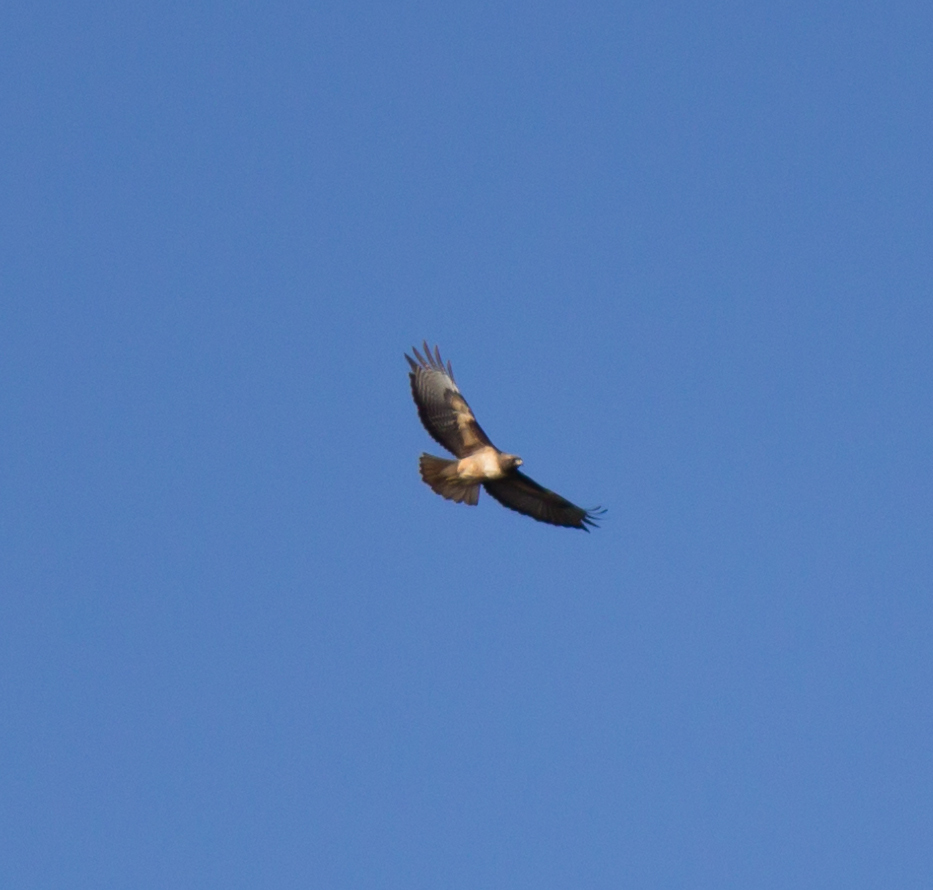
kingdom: Animalia
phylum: Chordata
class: Aves
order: Accipitriformes
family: Accipitridae
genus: Buteo
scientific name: Buteo jamaicensis
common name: Red-tailed hawk
